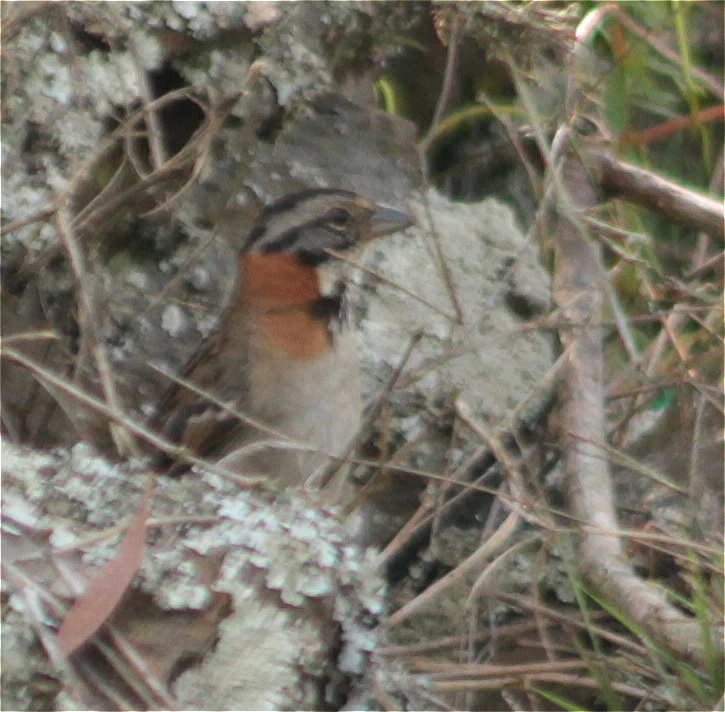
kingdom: Animalia
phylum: Chordata
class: Aves
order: Passeriformes
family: Passerellidae
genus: Zonotrichia
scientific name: Zonotrichia capensis
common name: Rufous-collared sparrow
